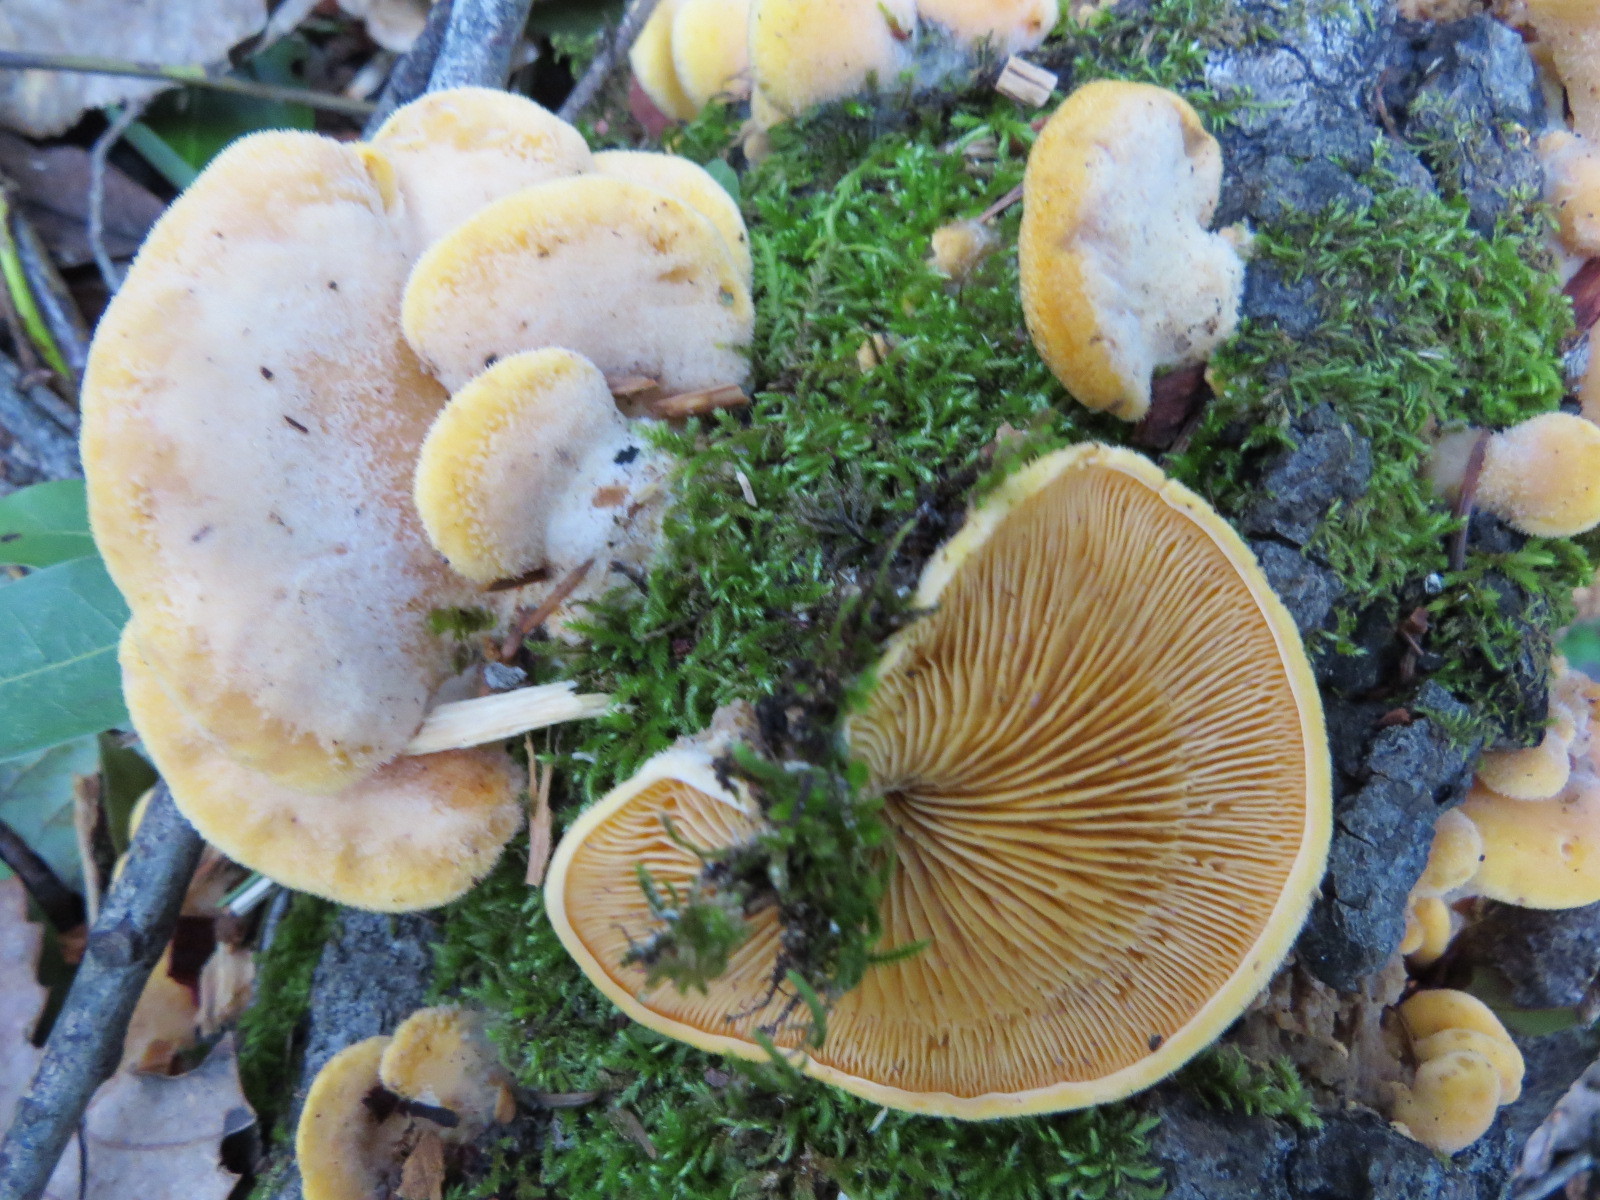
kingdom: Fungi
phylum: Basidiomycota
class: Agaricomycetes
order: Agaricales
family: Phyllotopsidaceae
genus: Phyllotopsis
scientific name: Phyllotopsis nidulans
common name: Orange mock oyster
